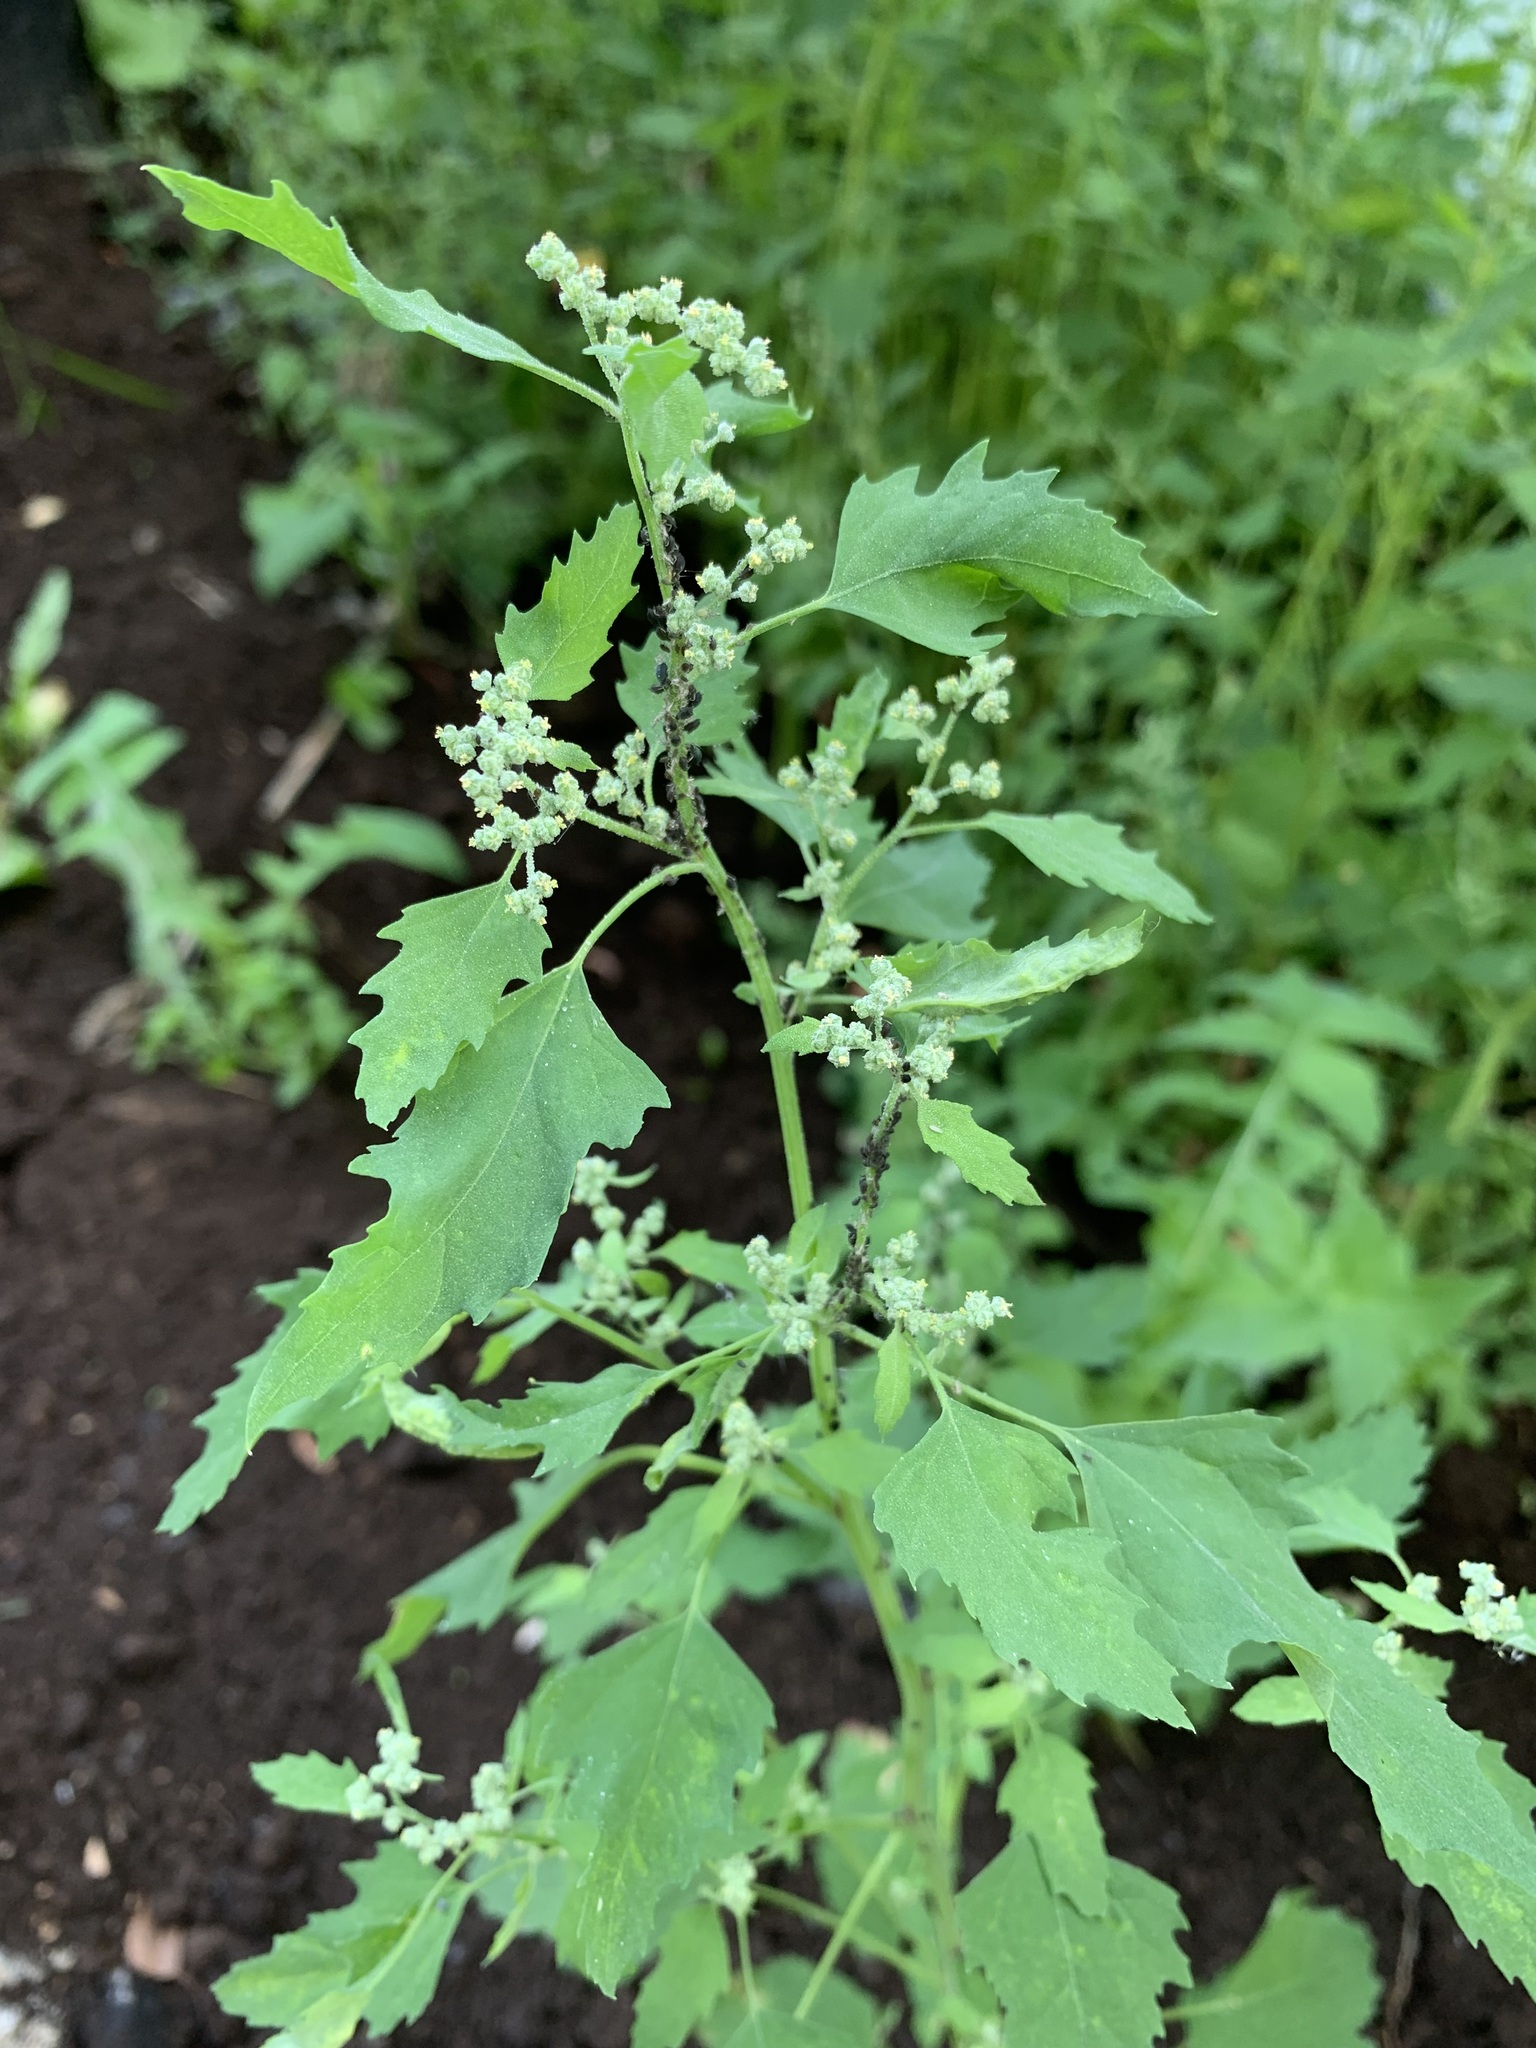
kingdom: Plantae
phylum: Tracheophyta
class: Magnoliopsida
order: Caryophyllales
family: Amaranthaceae
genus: Chenopodium
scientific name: Chenopodium album
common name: Fat-hen
